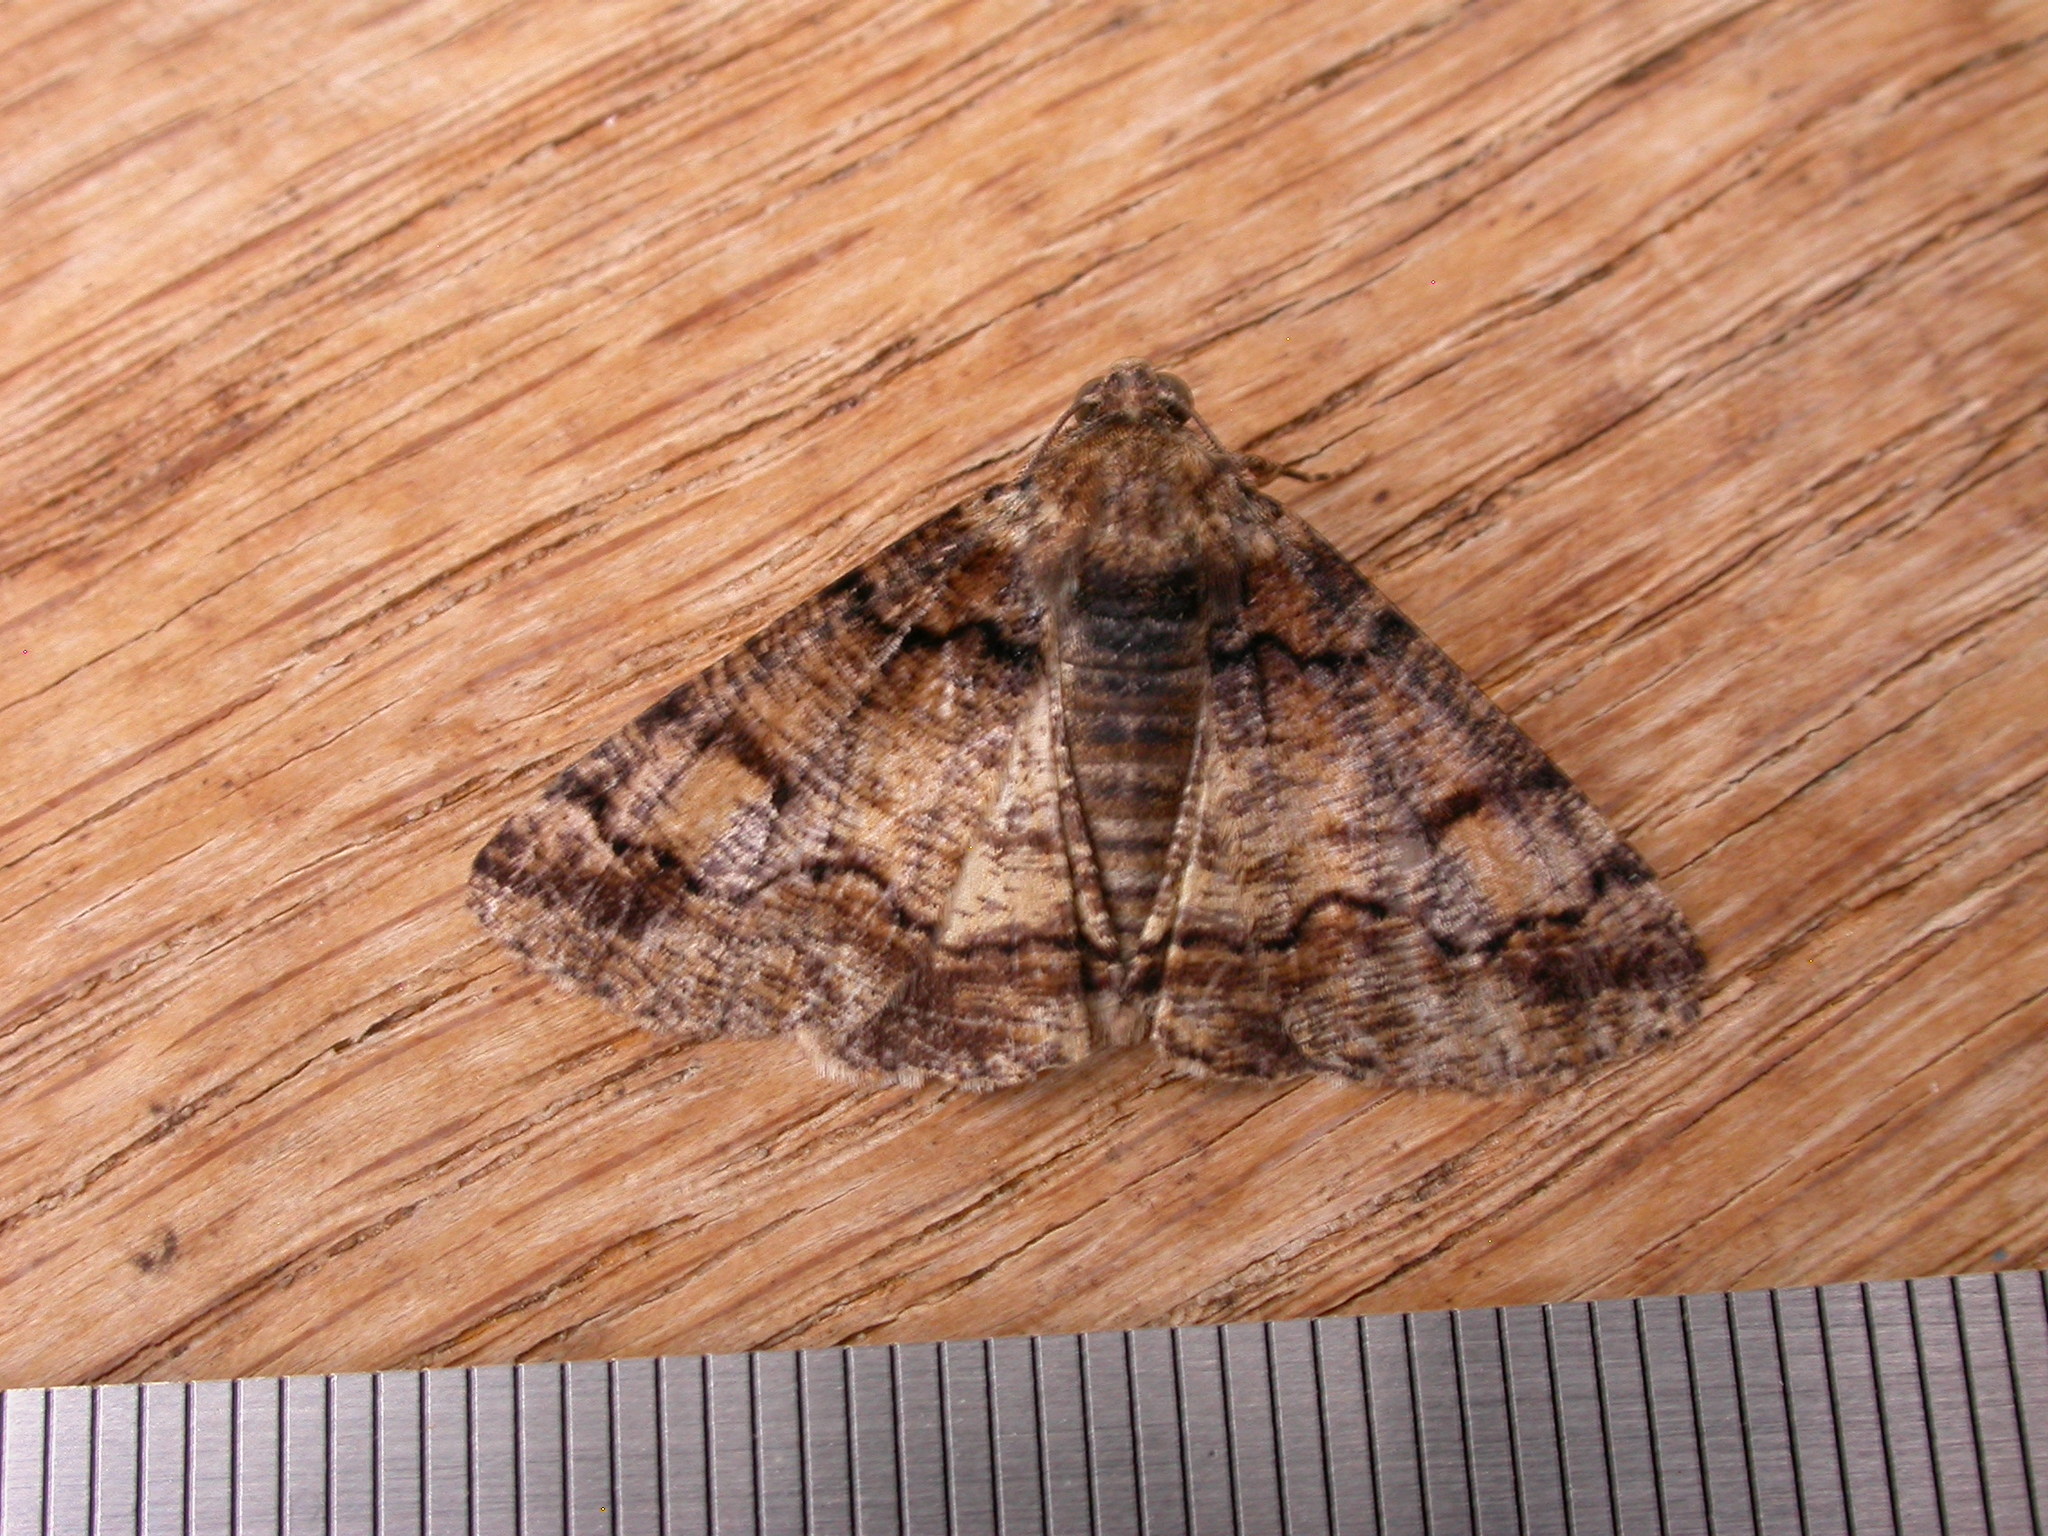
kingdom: Animalia
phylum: Arthropoda
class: Insecta
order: Lepidoptera
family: Geometridae
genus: Cryphaea
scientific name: Cryphaea xylina
